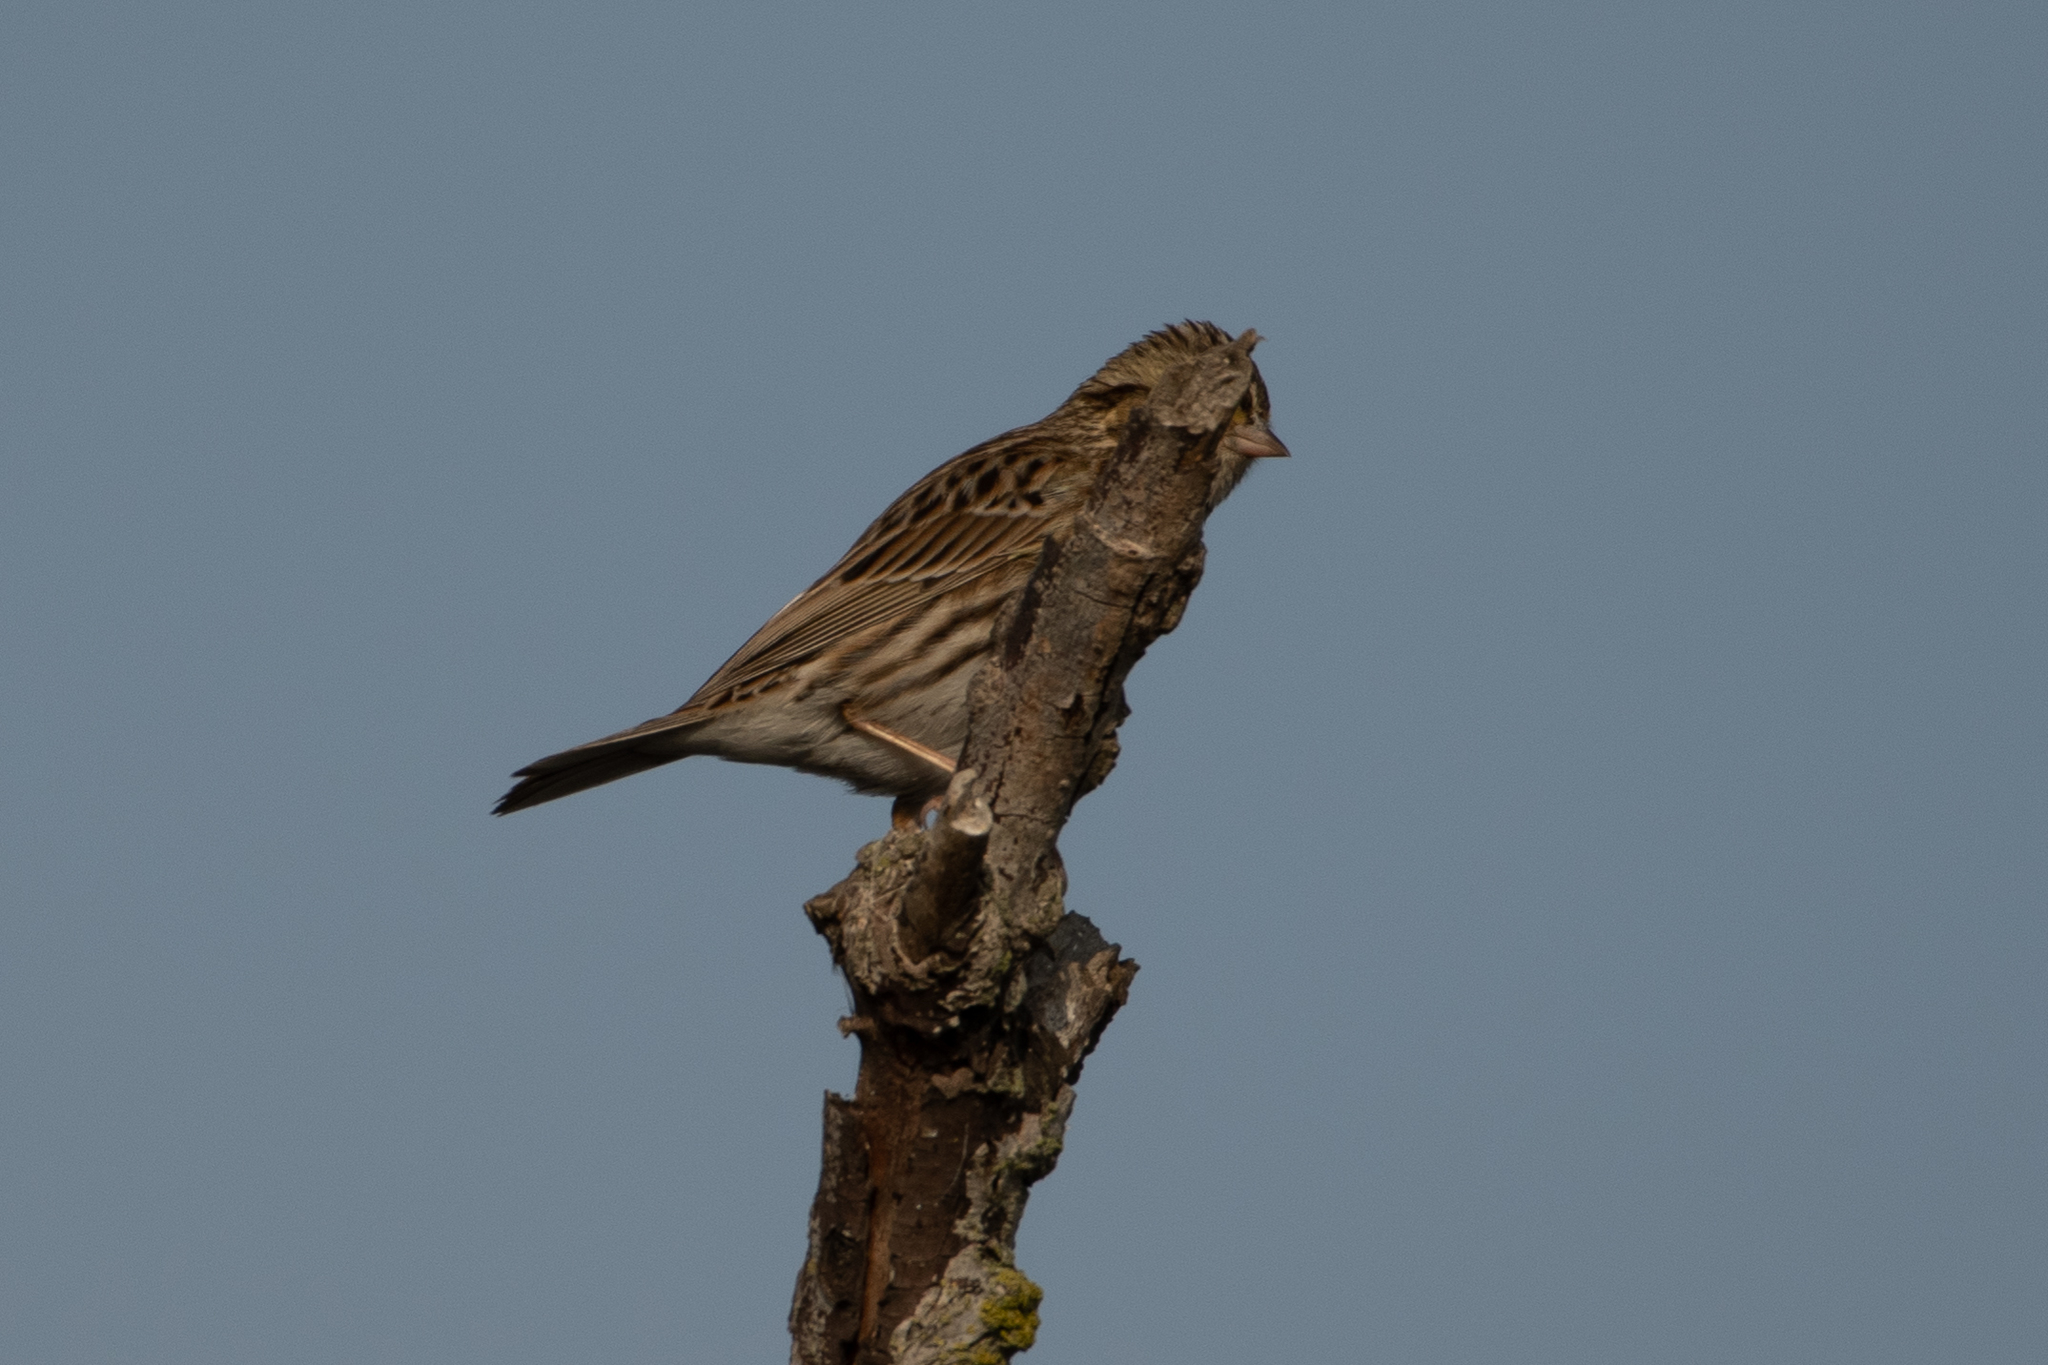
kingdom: Animalia
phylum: Chordata
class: Aves
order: Passeriformes
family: Passerellidae
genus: Passerculus
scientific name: Passerculus sandwichensis
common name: Savannah sparrow
